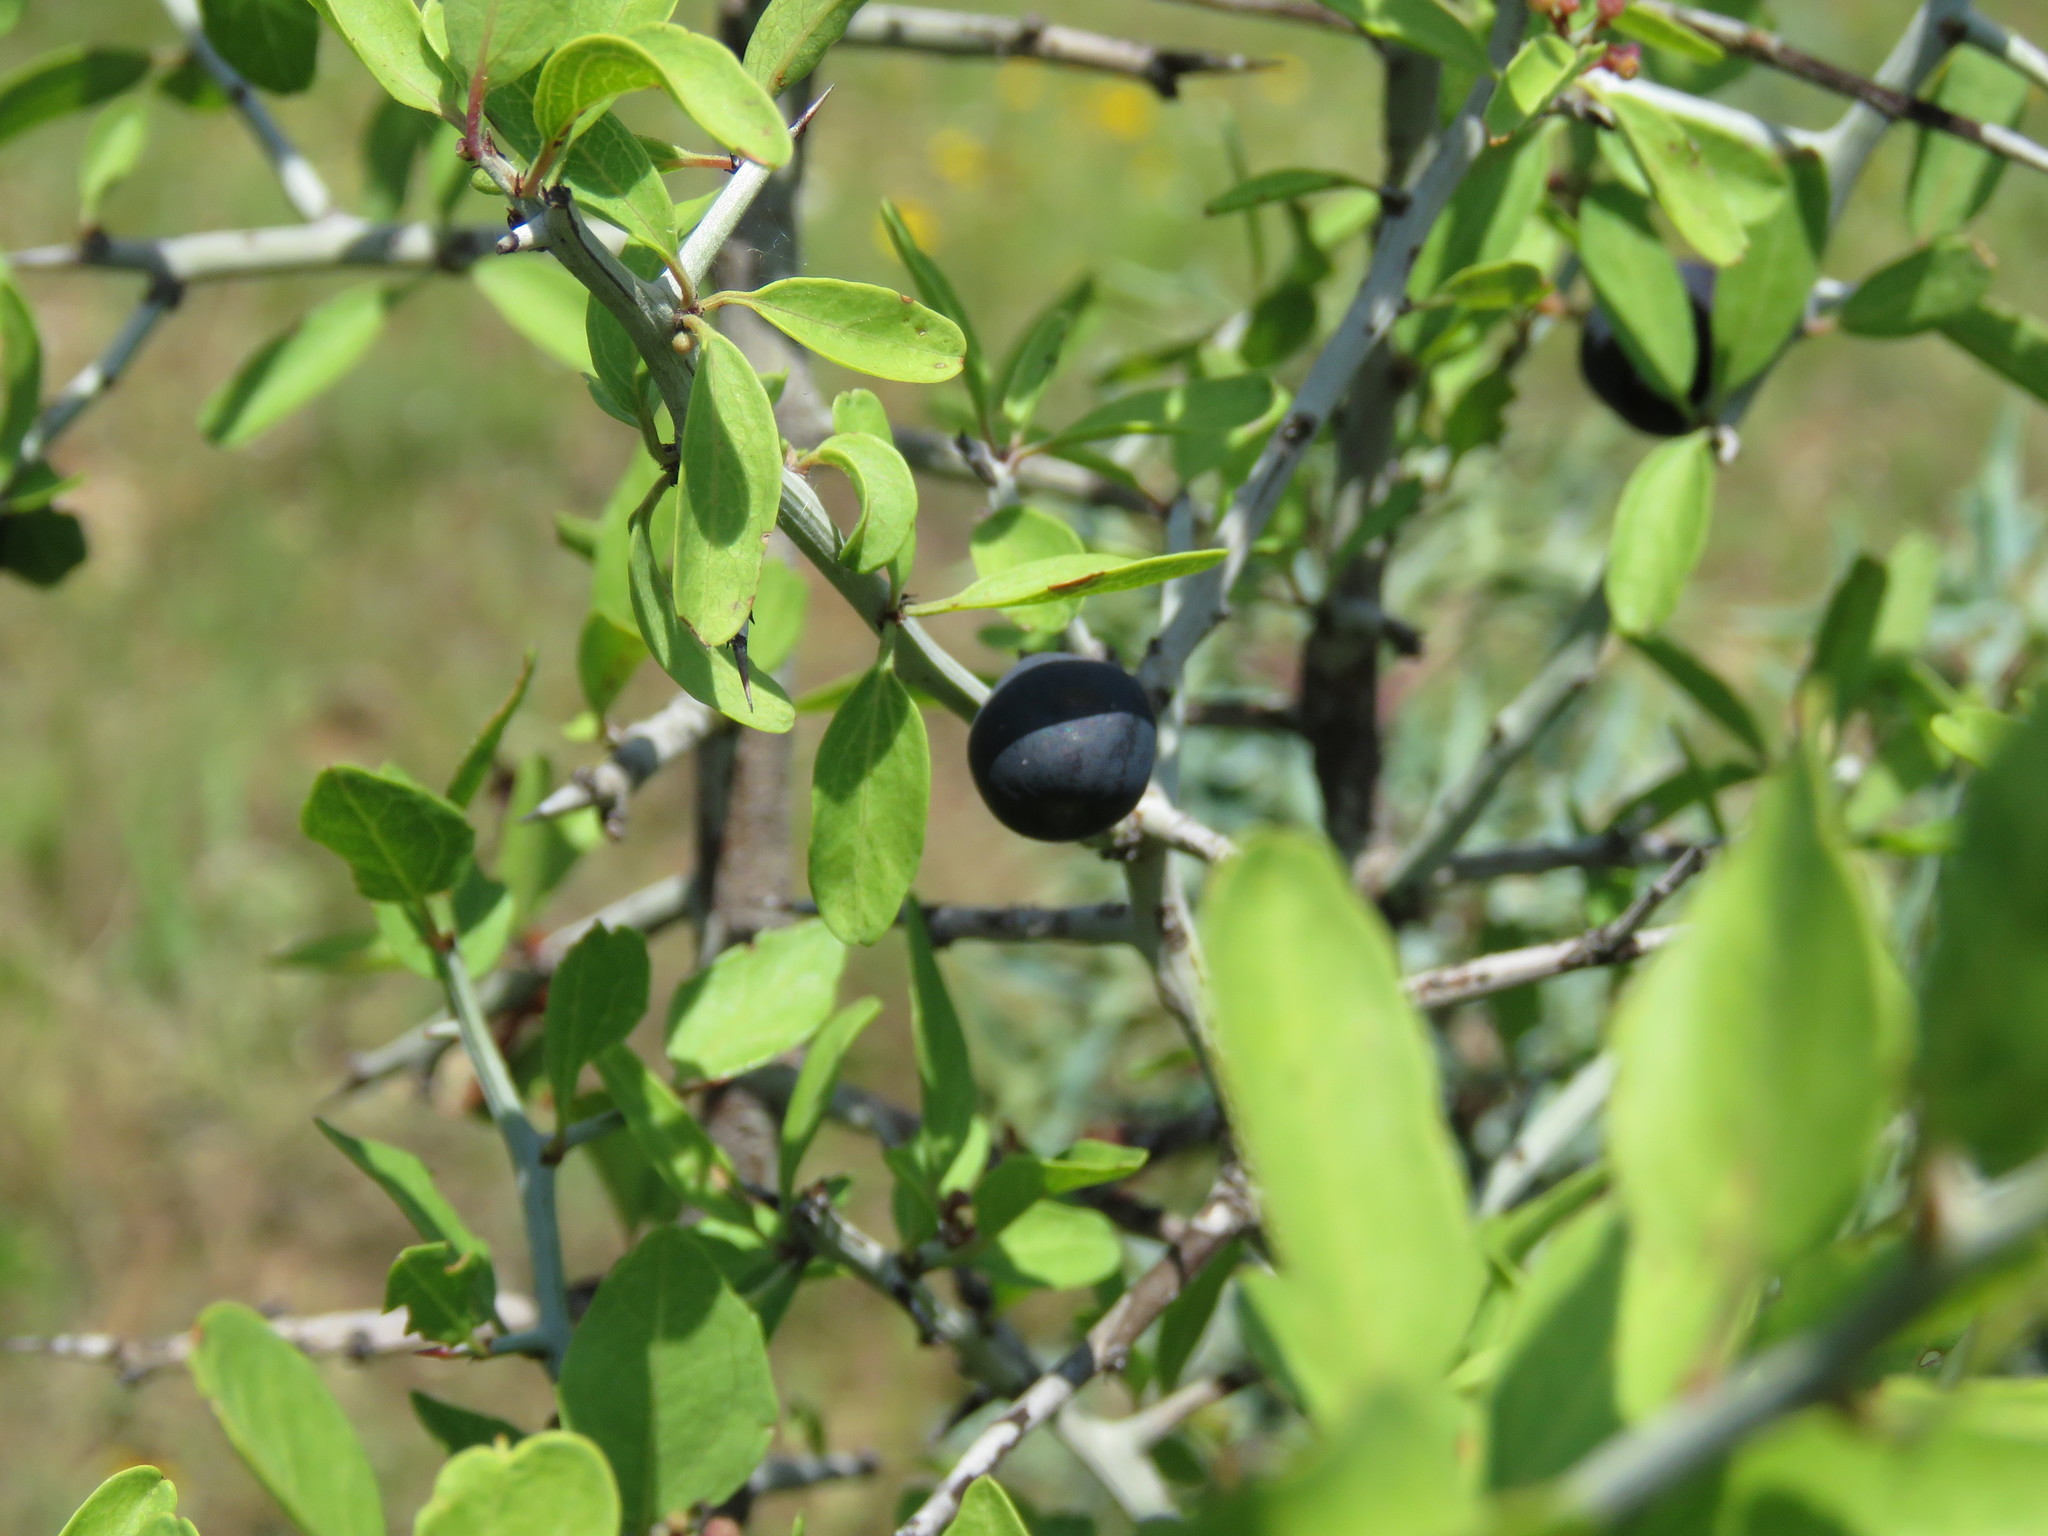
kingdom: Plantae
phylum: Tracheophyta
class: Magnoliopsida
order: Rosales
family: Rhamnaceae
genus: Sarcomphalus
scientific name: Sarcomphalus obtusifolius
